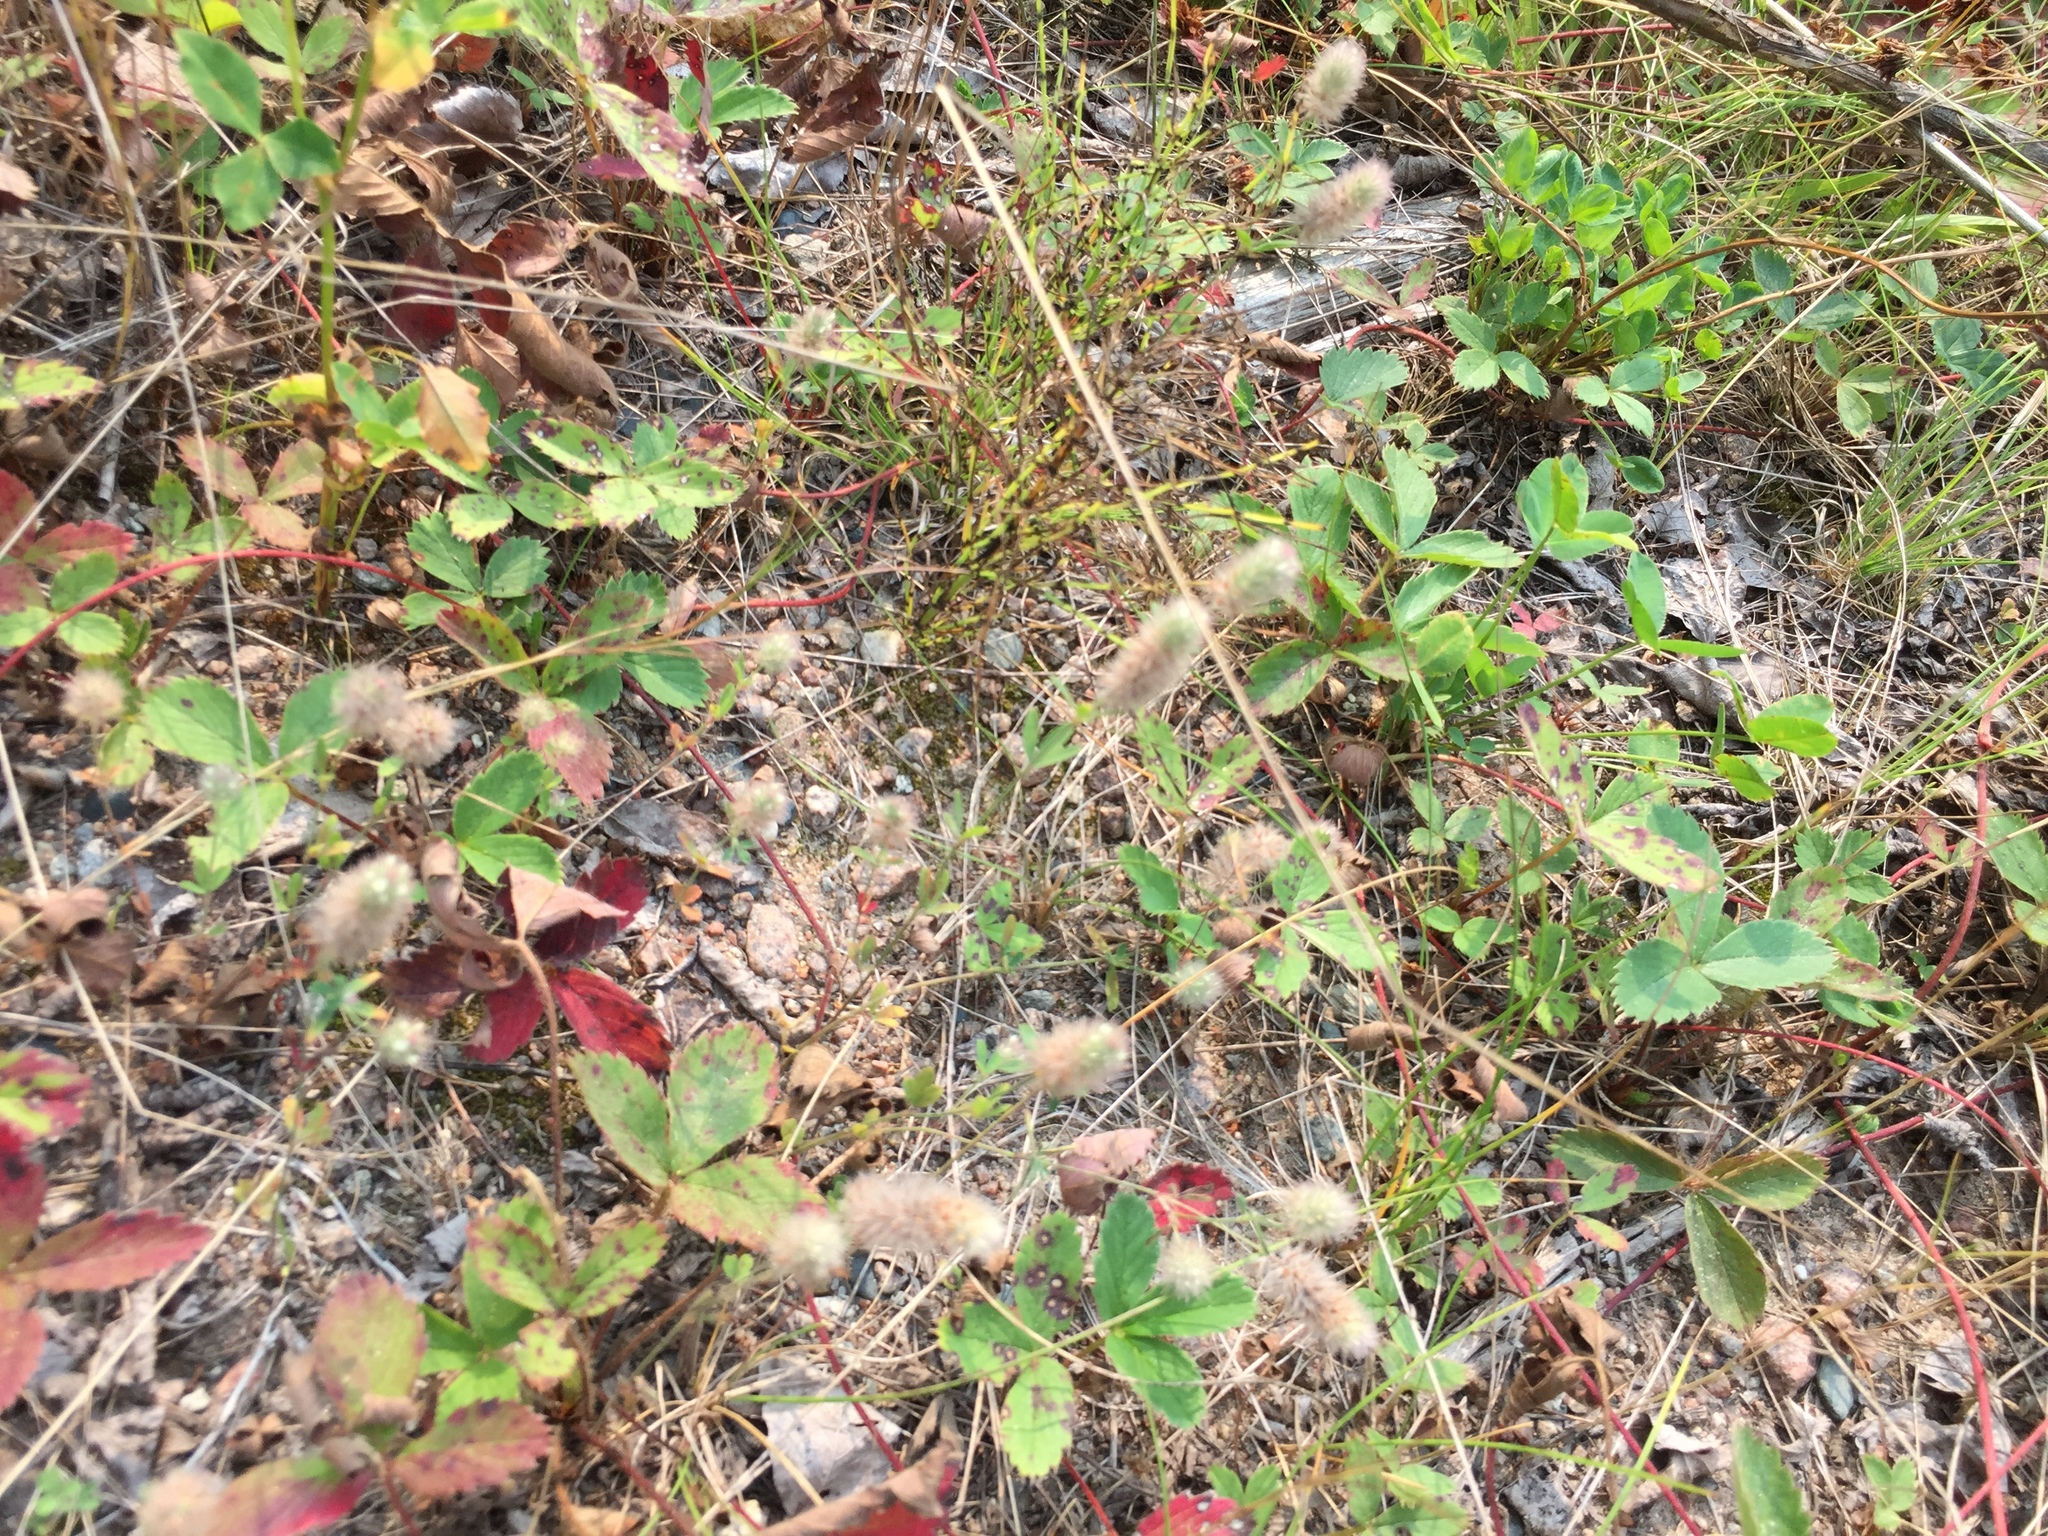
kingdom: Plantae
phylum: Tracheophyta
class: Magnoliopsida
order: Fabales
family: Fabaceae
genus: Trifolium
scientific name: Trifolium arvense
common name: Hare's-foot clover
